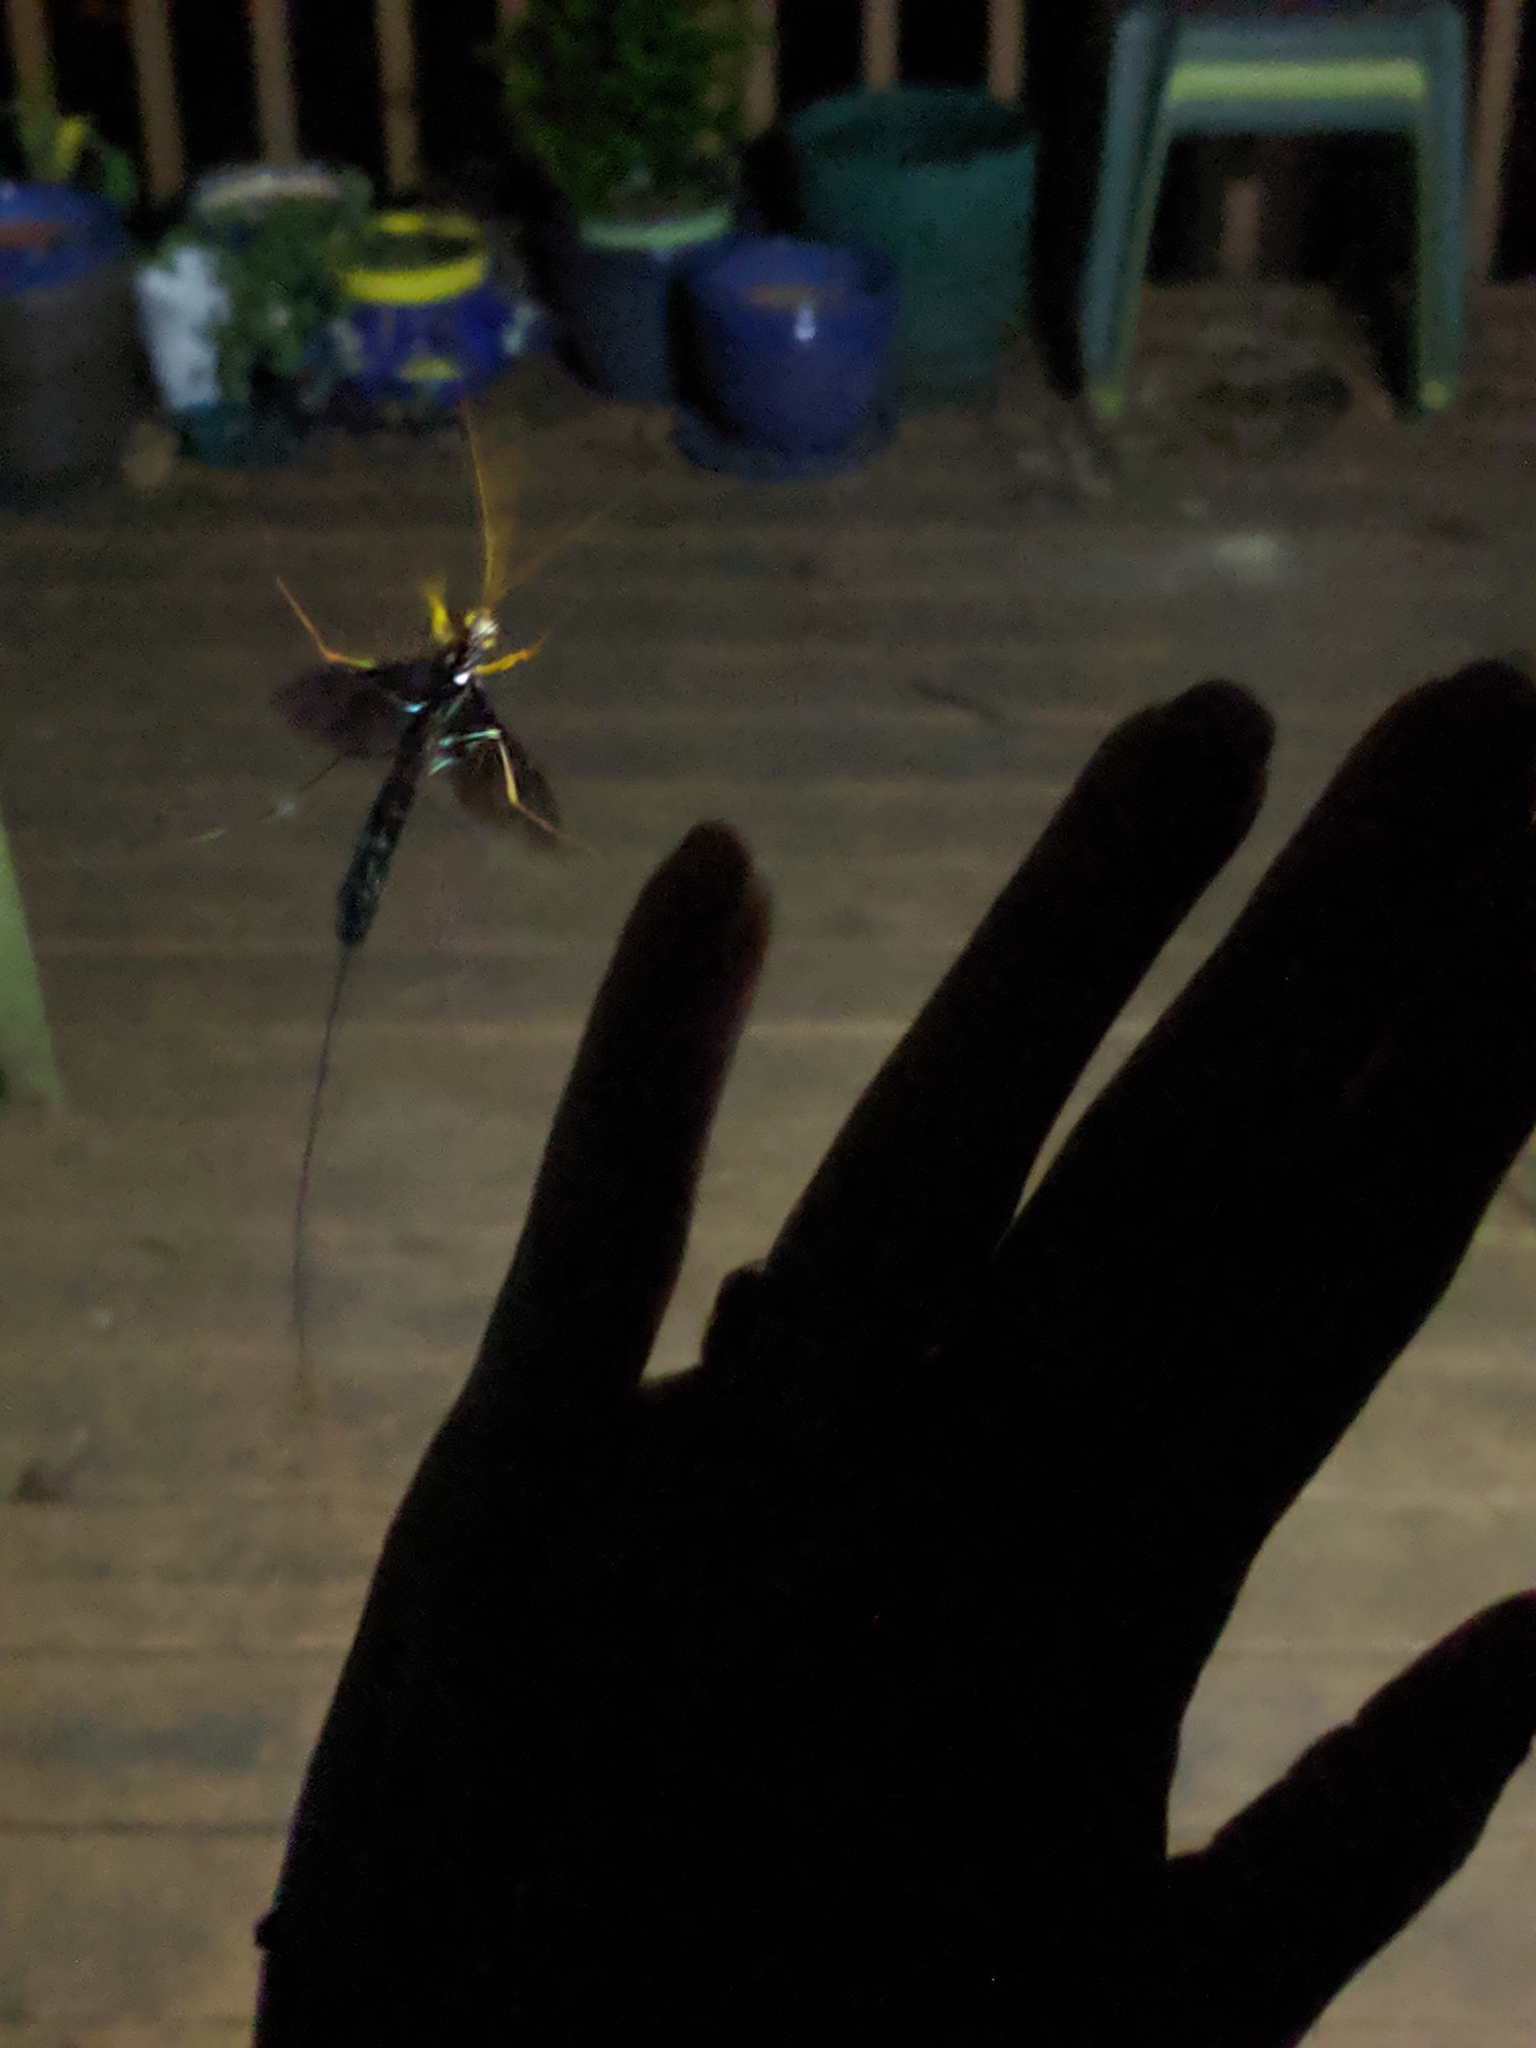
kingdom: Animalia
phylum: Arthropoda
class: Insecta
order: Hymenoptera
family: Ichneumonidae
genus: Megarhyssa
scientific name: Megarhyssa atrata
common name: Black giant ichneumonid wasp
